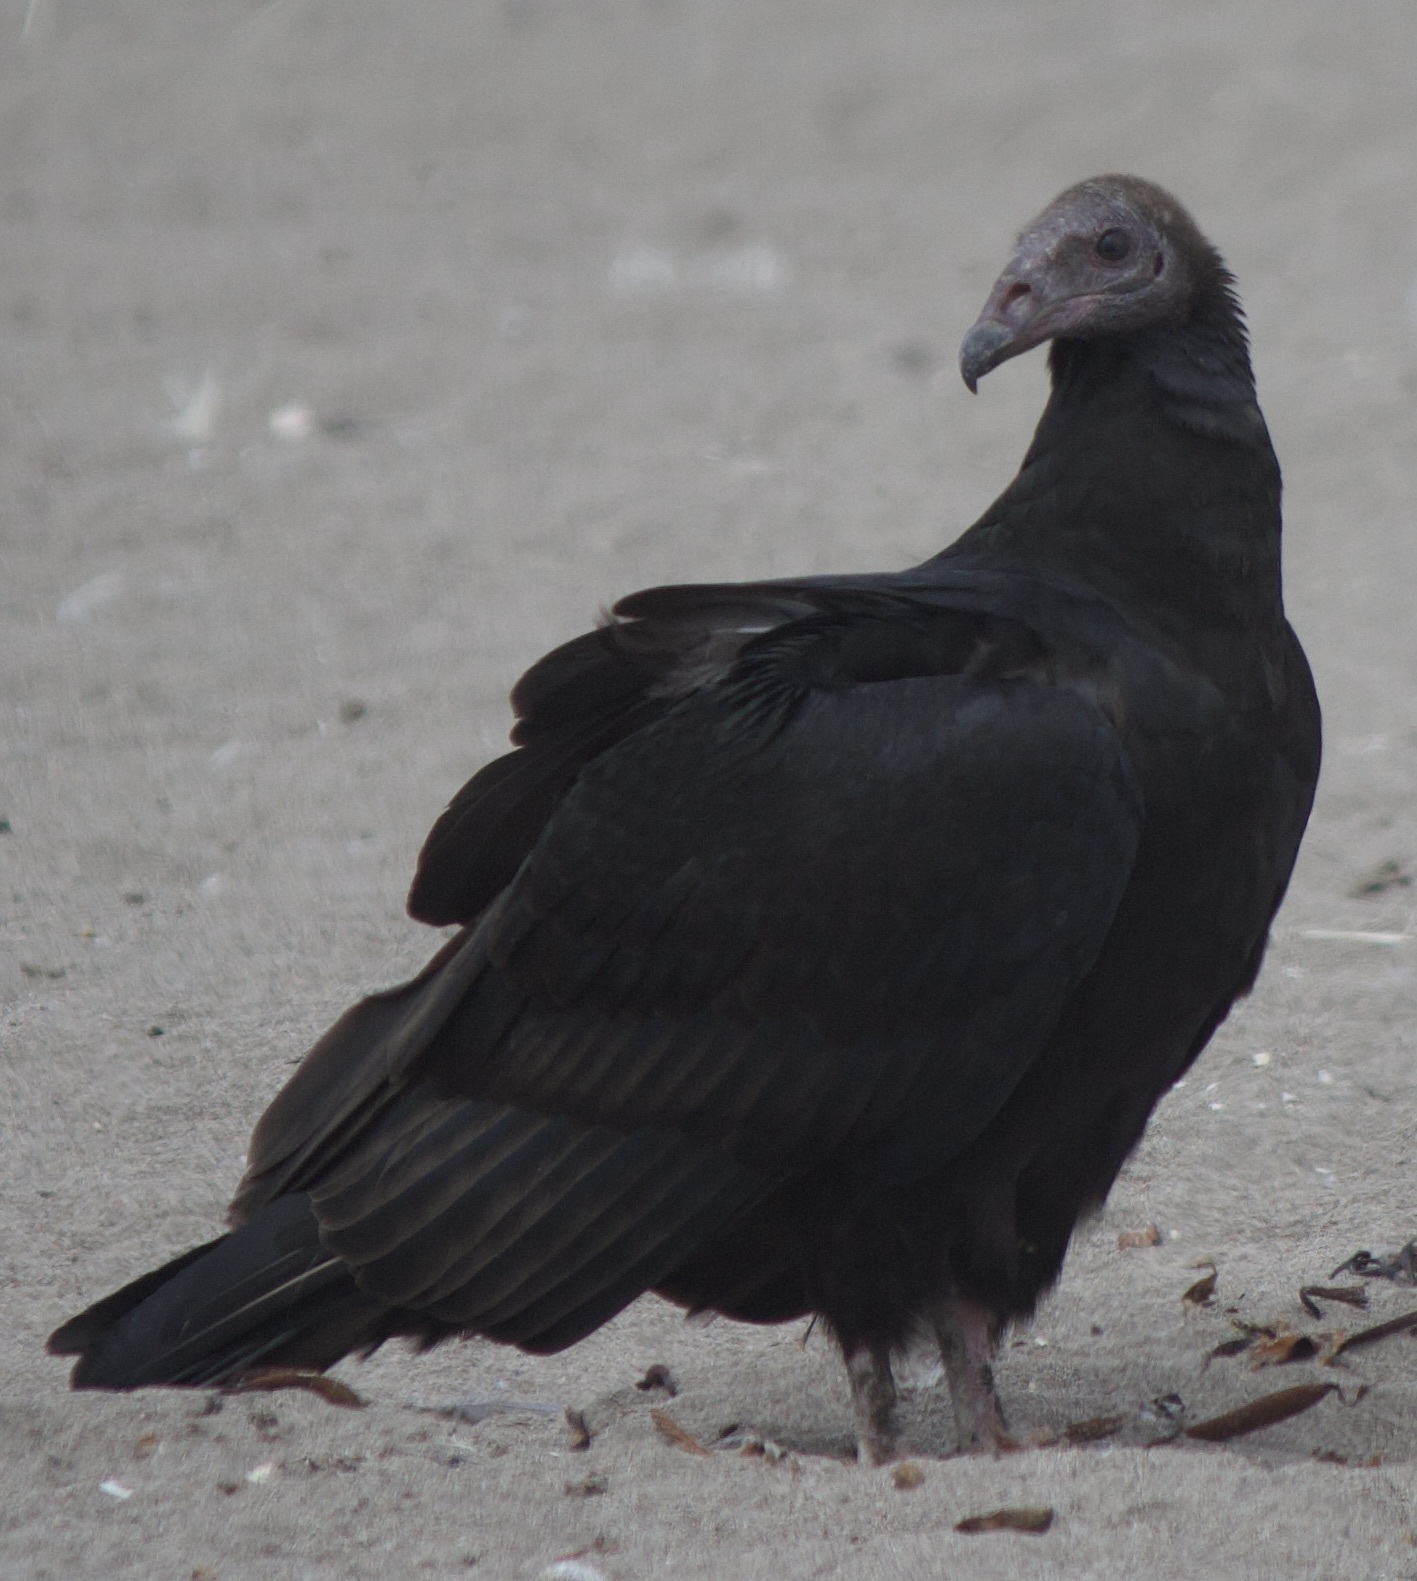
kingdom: Animalia
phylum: Chordata
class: Aves
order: Accipitriformes
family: Cathartidae
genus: Cathartes
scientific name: Cathartes aura
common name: Turkey vulture
